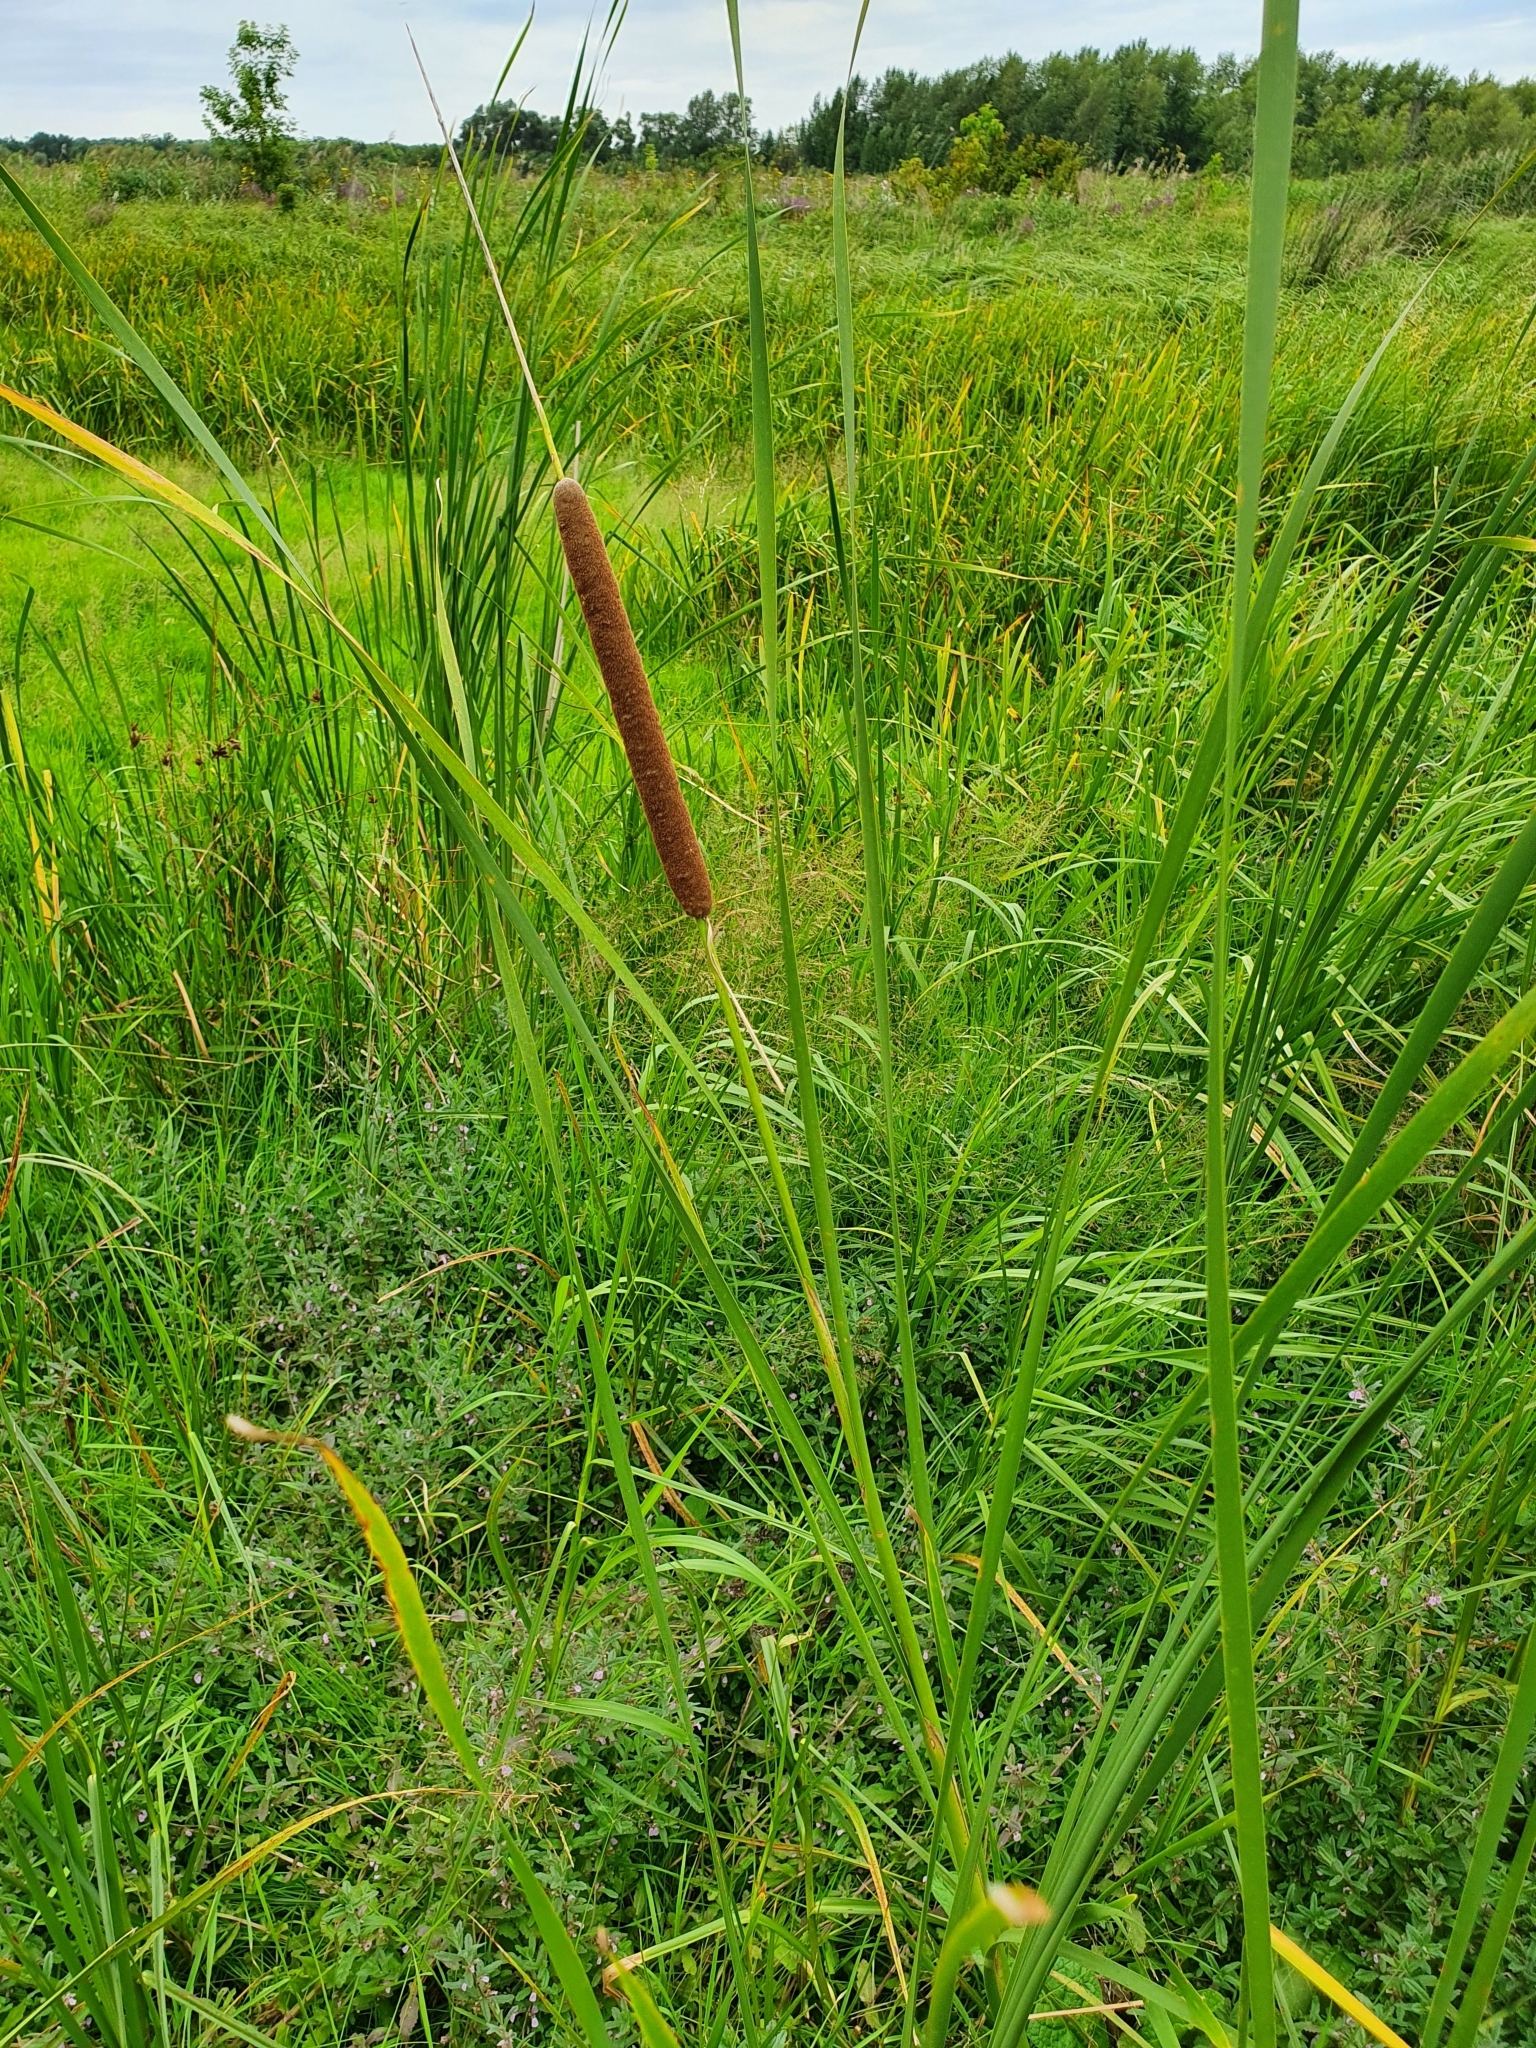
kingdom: Plantae
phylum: Tracheophyta
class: Liliopsida
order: Poales
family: Typhaceae
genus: Typha
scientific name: Typha angustifolia
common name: Lesser bulrush
